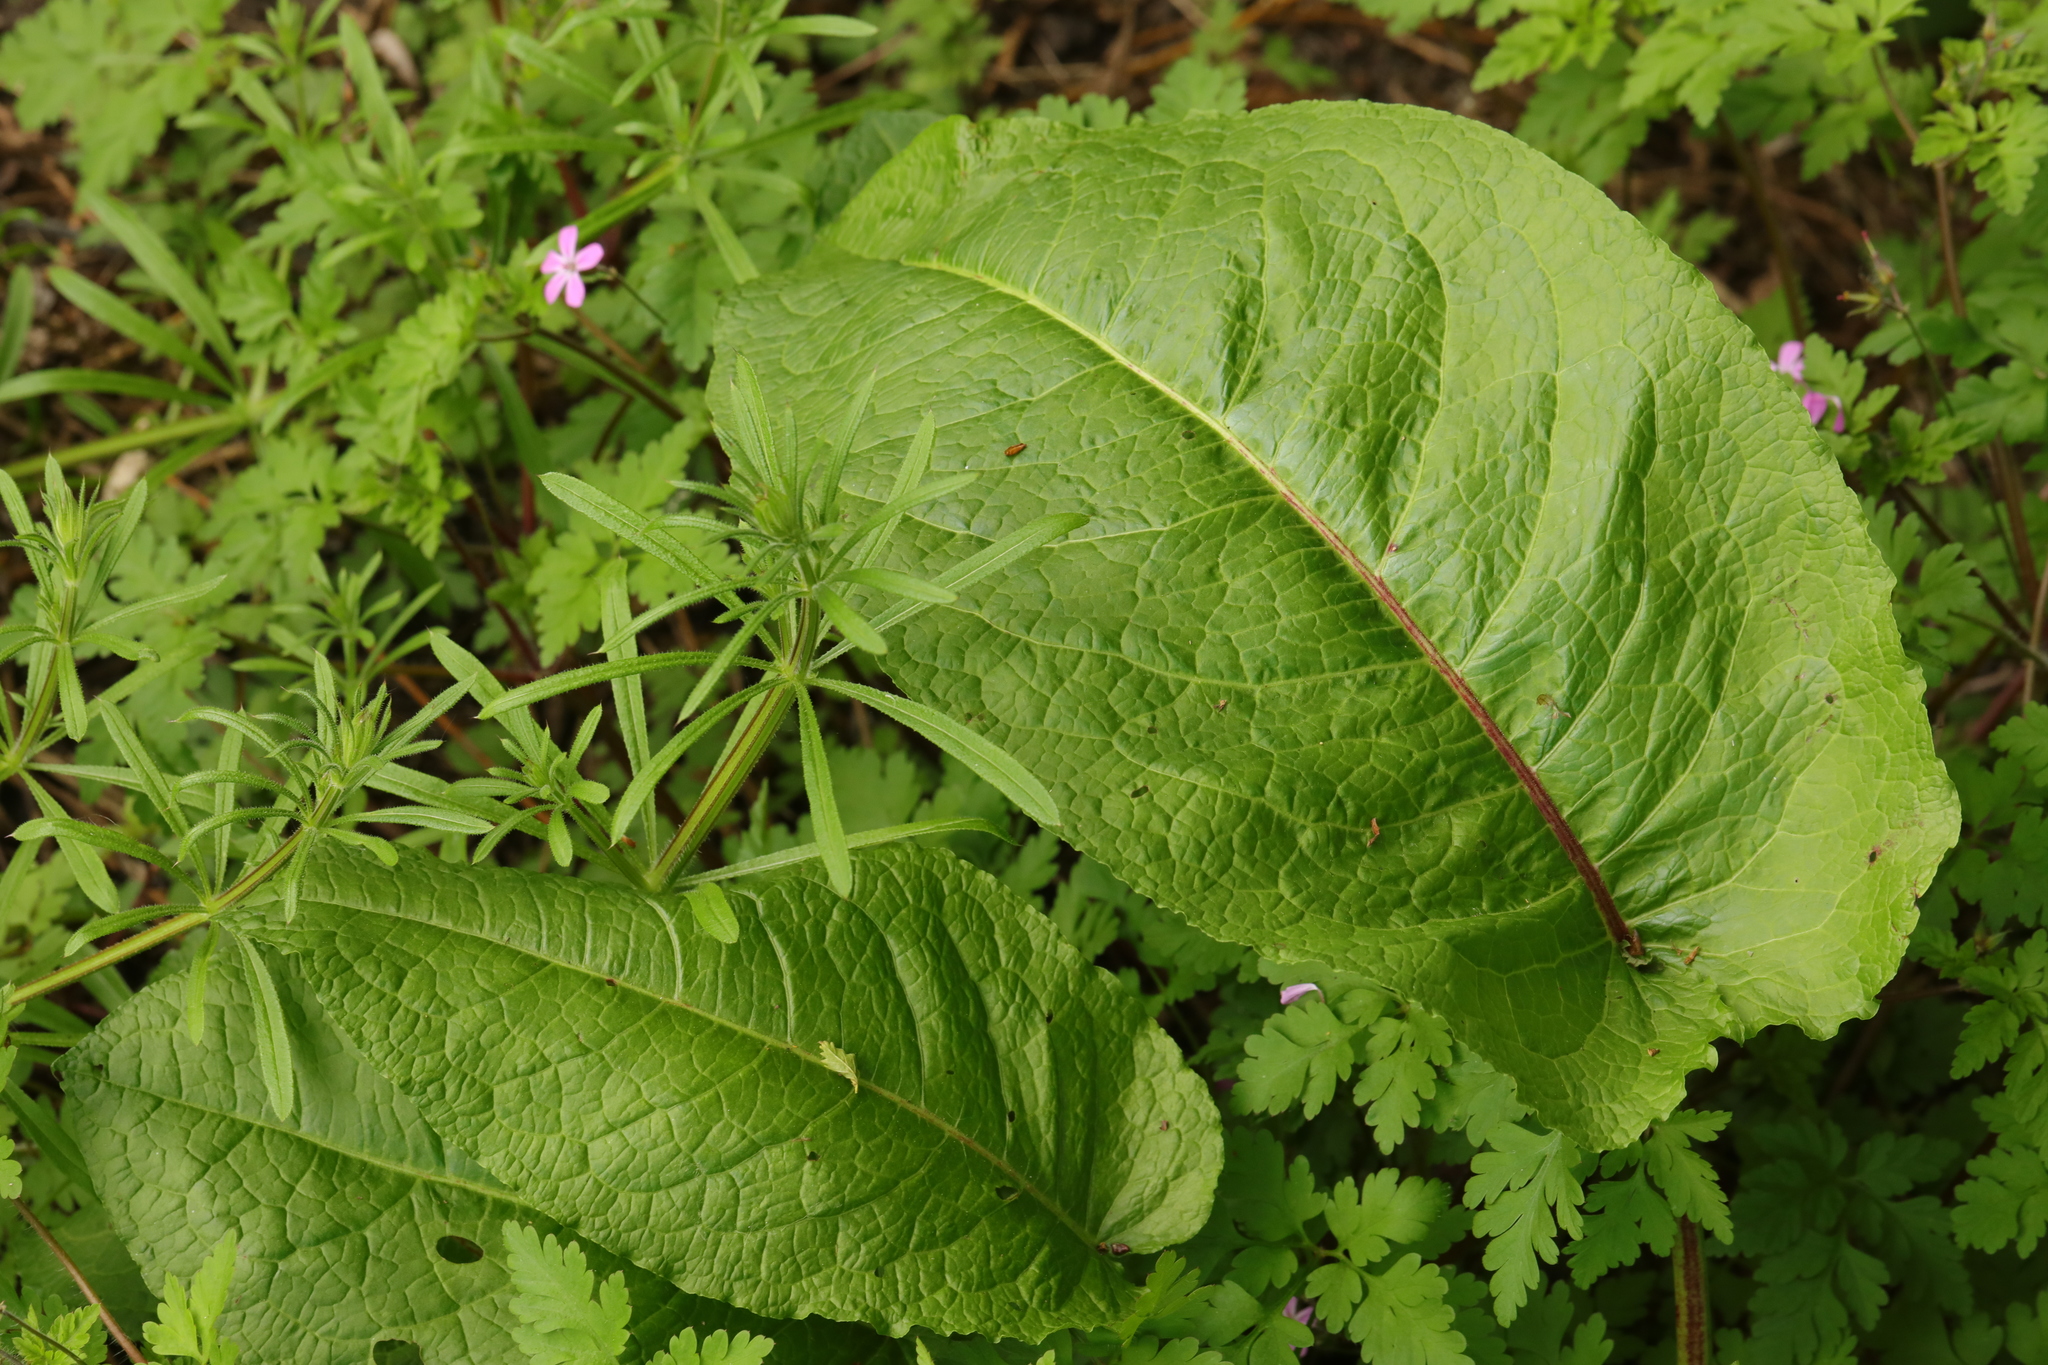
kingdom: Plantae
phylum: Tracheophyta
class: Magnoliopsida
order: Caryophyllales
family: Polygonaceae
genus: Rumex
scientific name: Rumex obtusifolius
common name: Bitter dock
